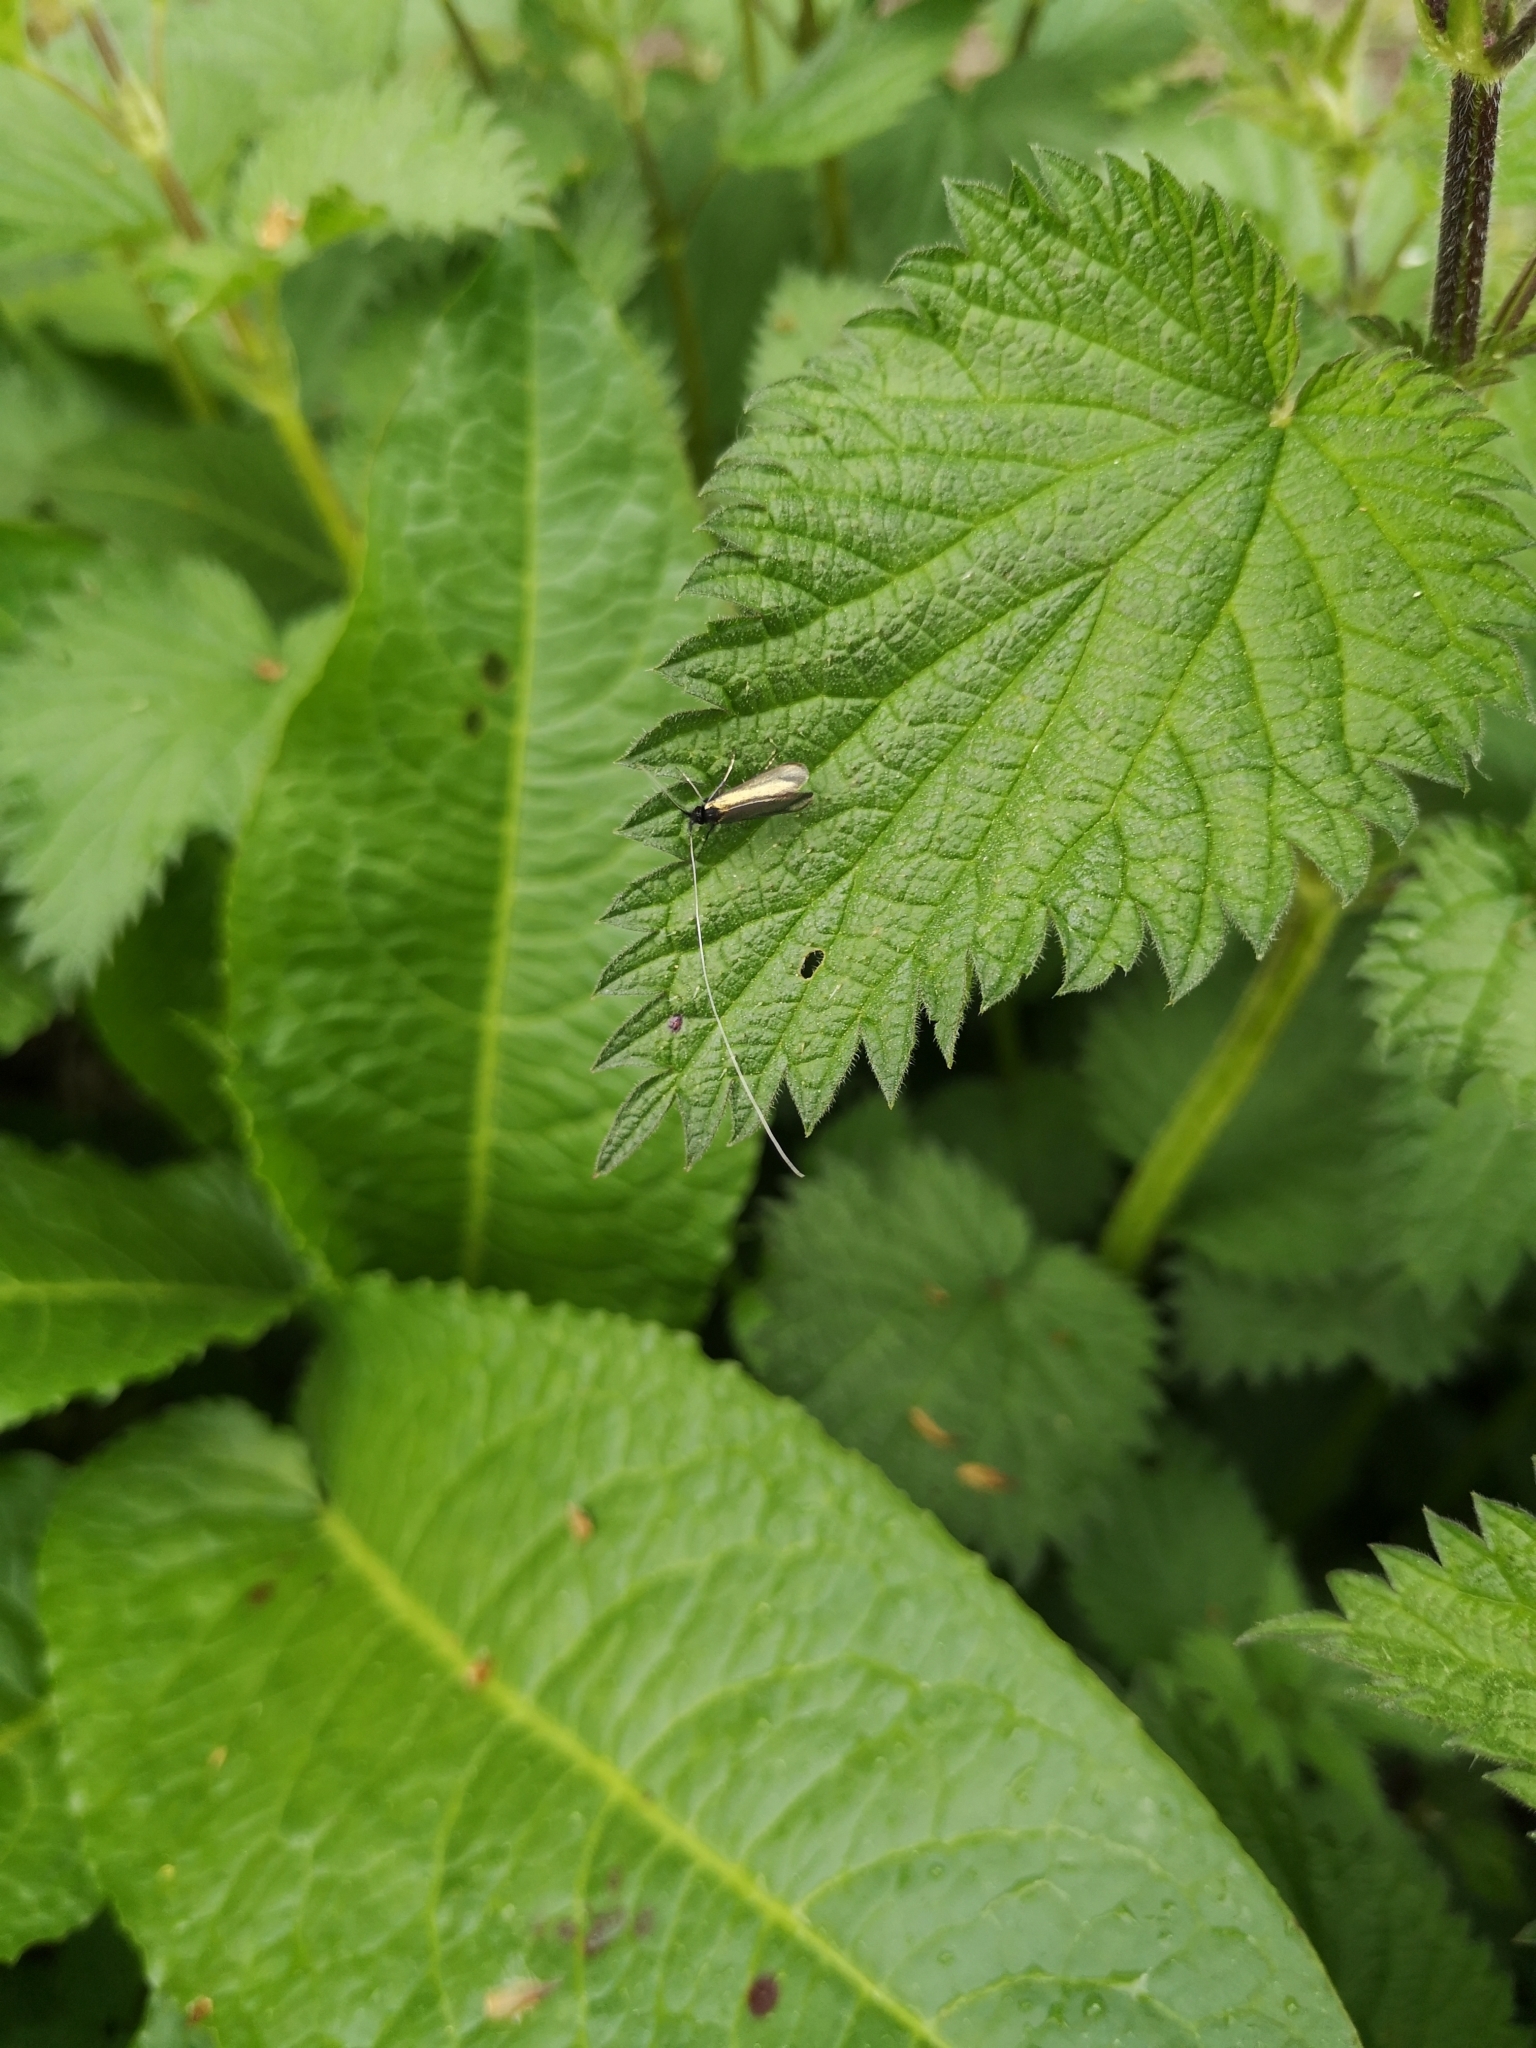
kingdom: Animalia
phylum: Arthropoda
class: Insecta
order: Lepidoptera
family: Adelidae
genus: Adela
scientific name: Adela viridella
